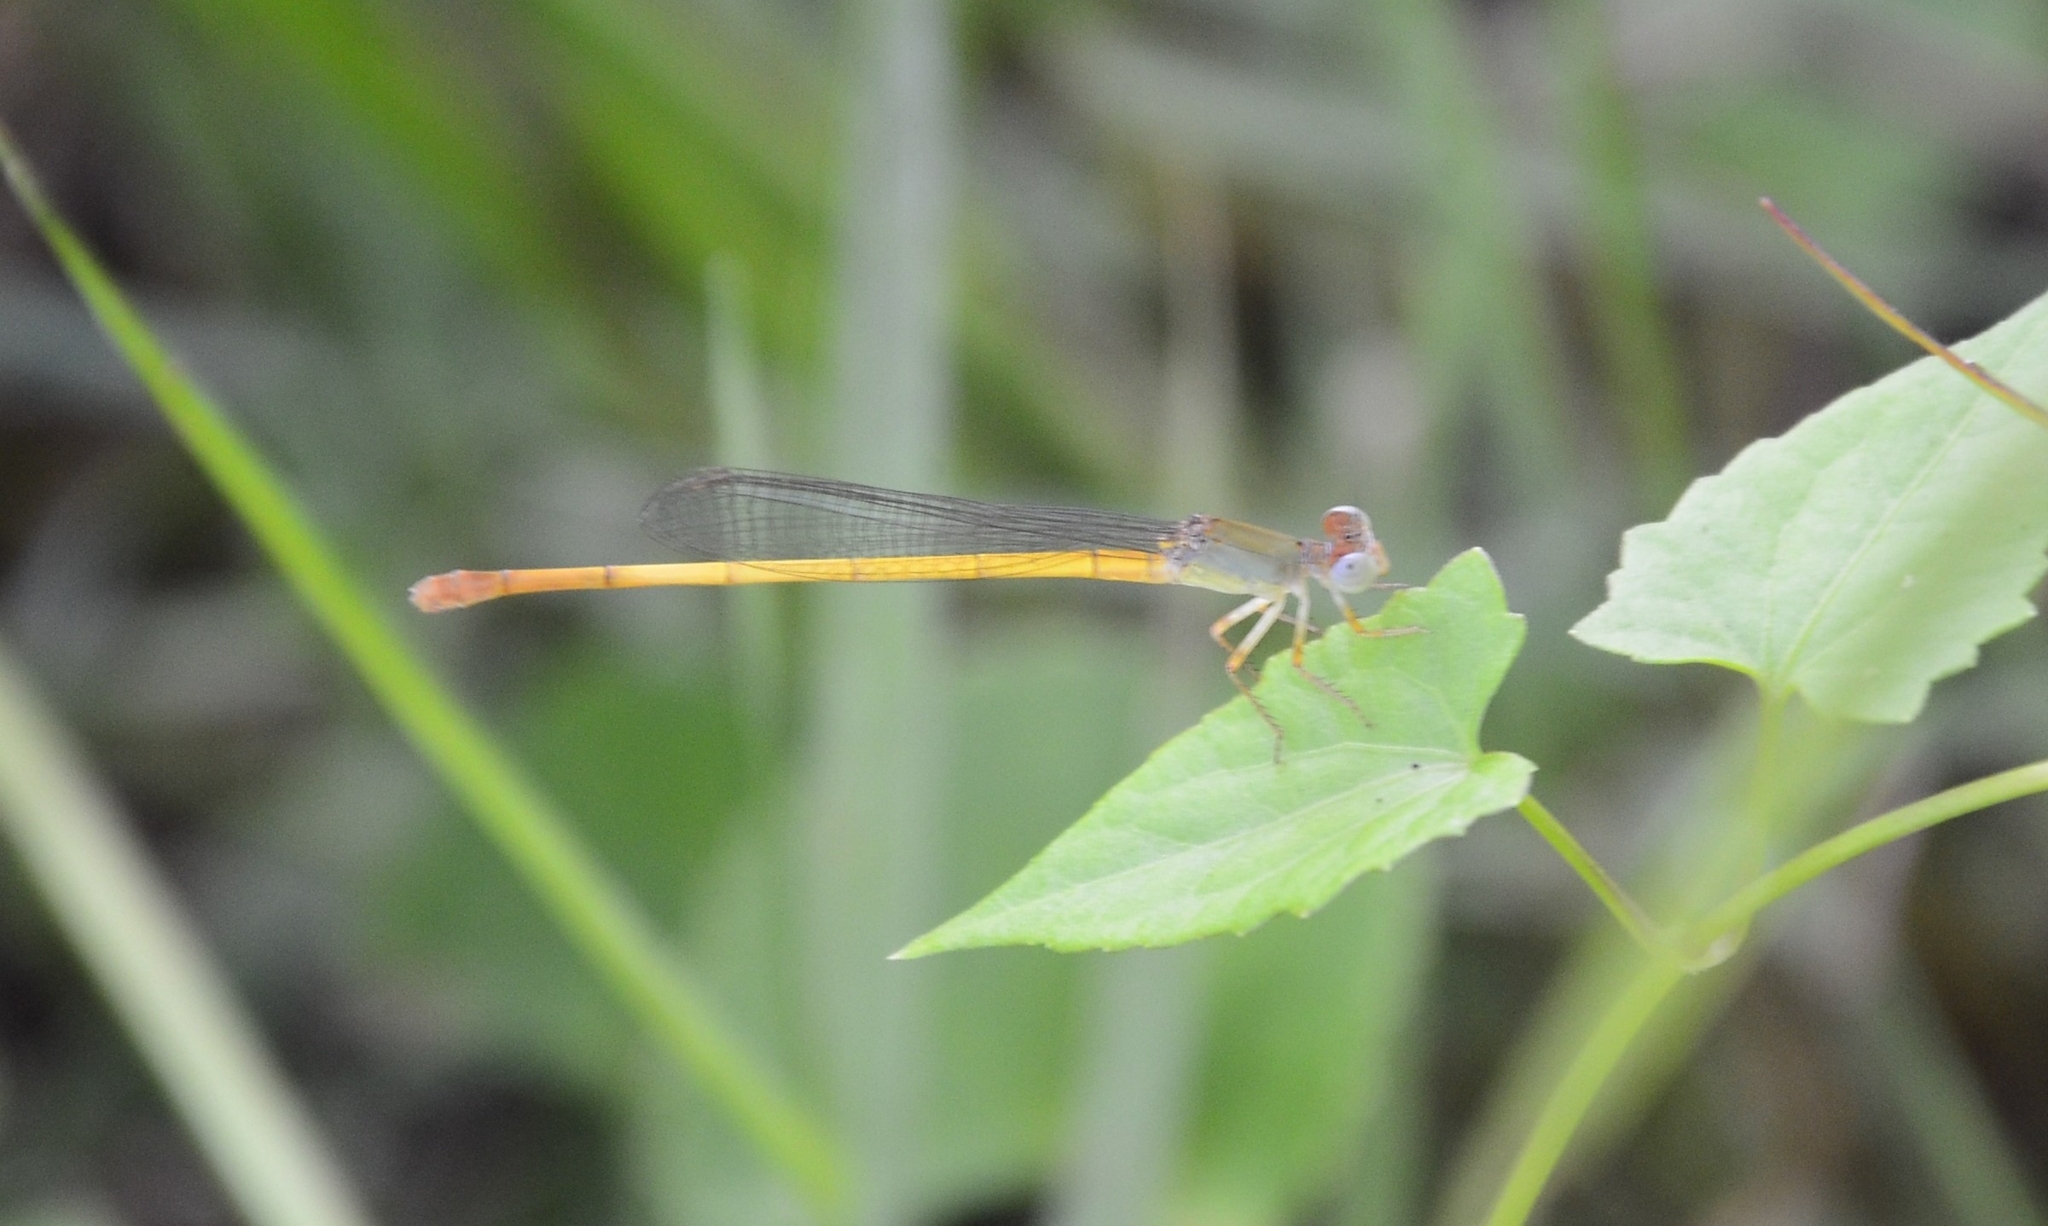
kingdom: Animalia
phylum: Arthropoda
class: Insecta
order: Odonata
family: Coenagrionidae
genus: Ceriagrion
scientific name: Ceriagrion coromandelianum
